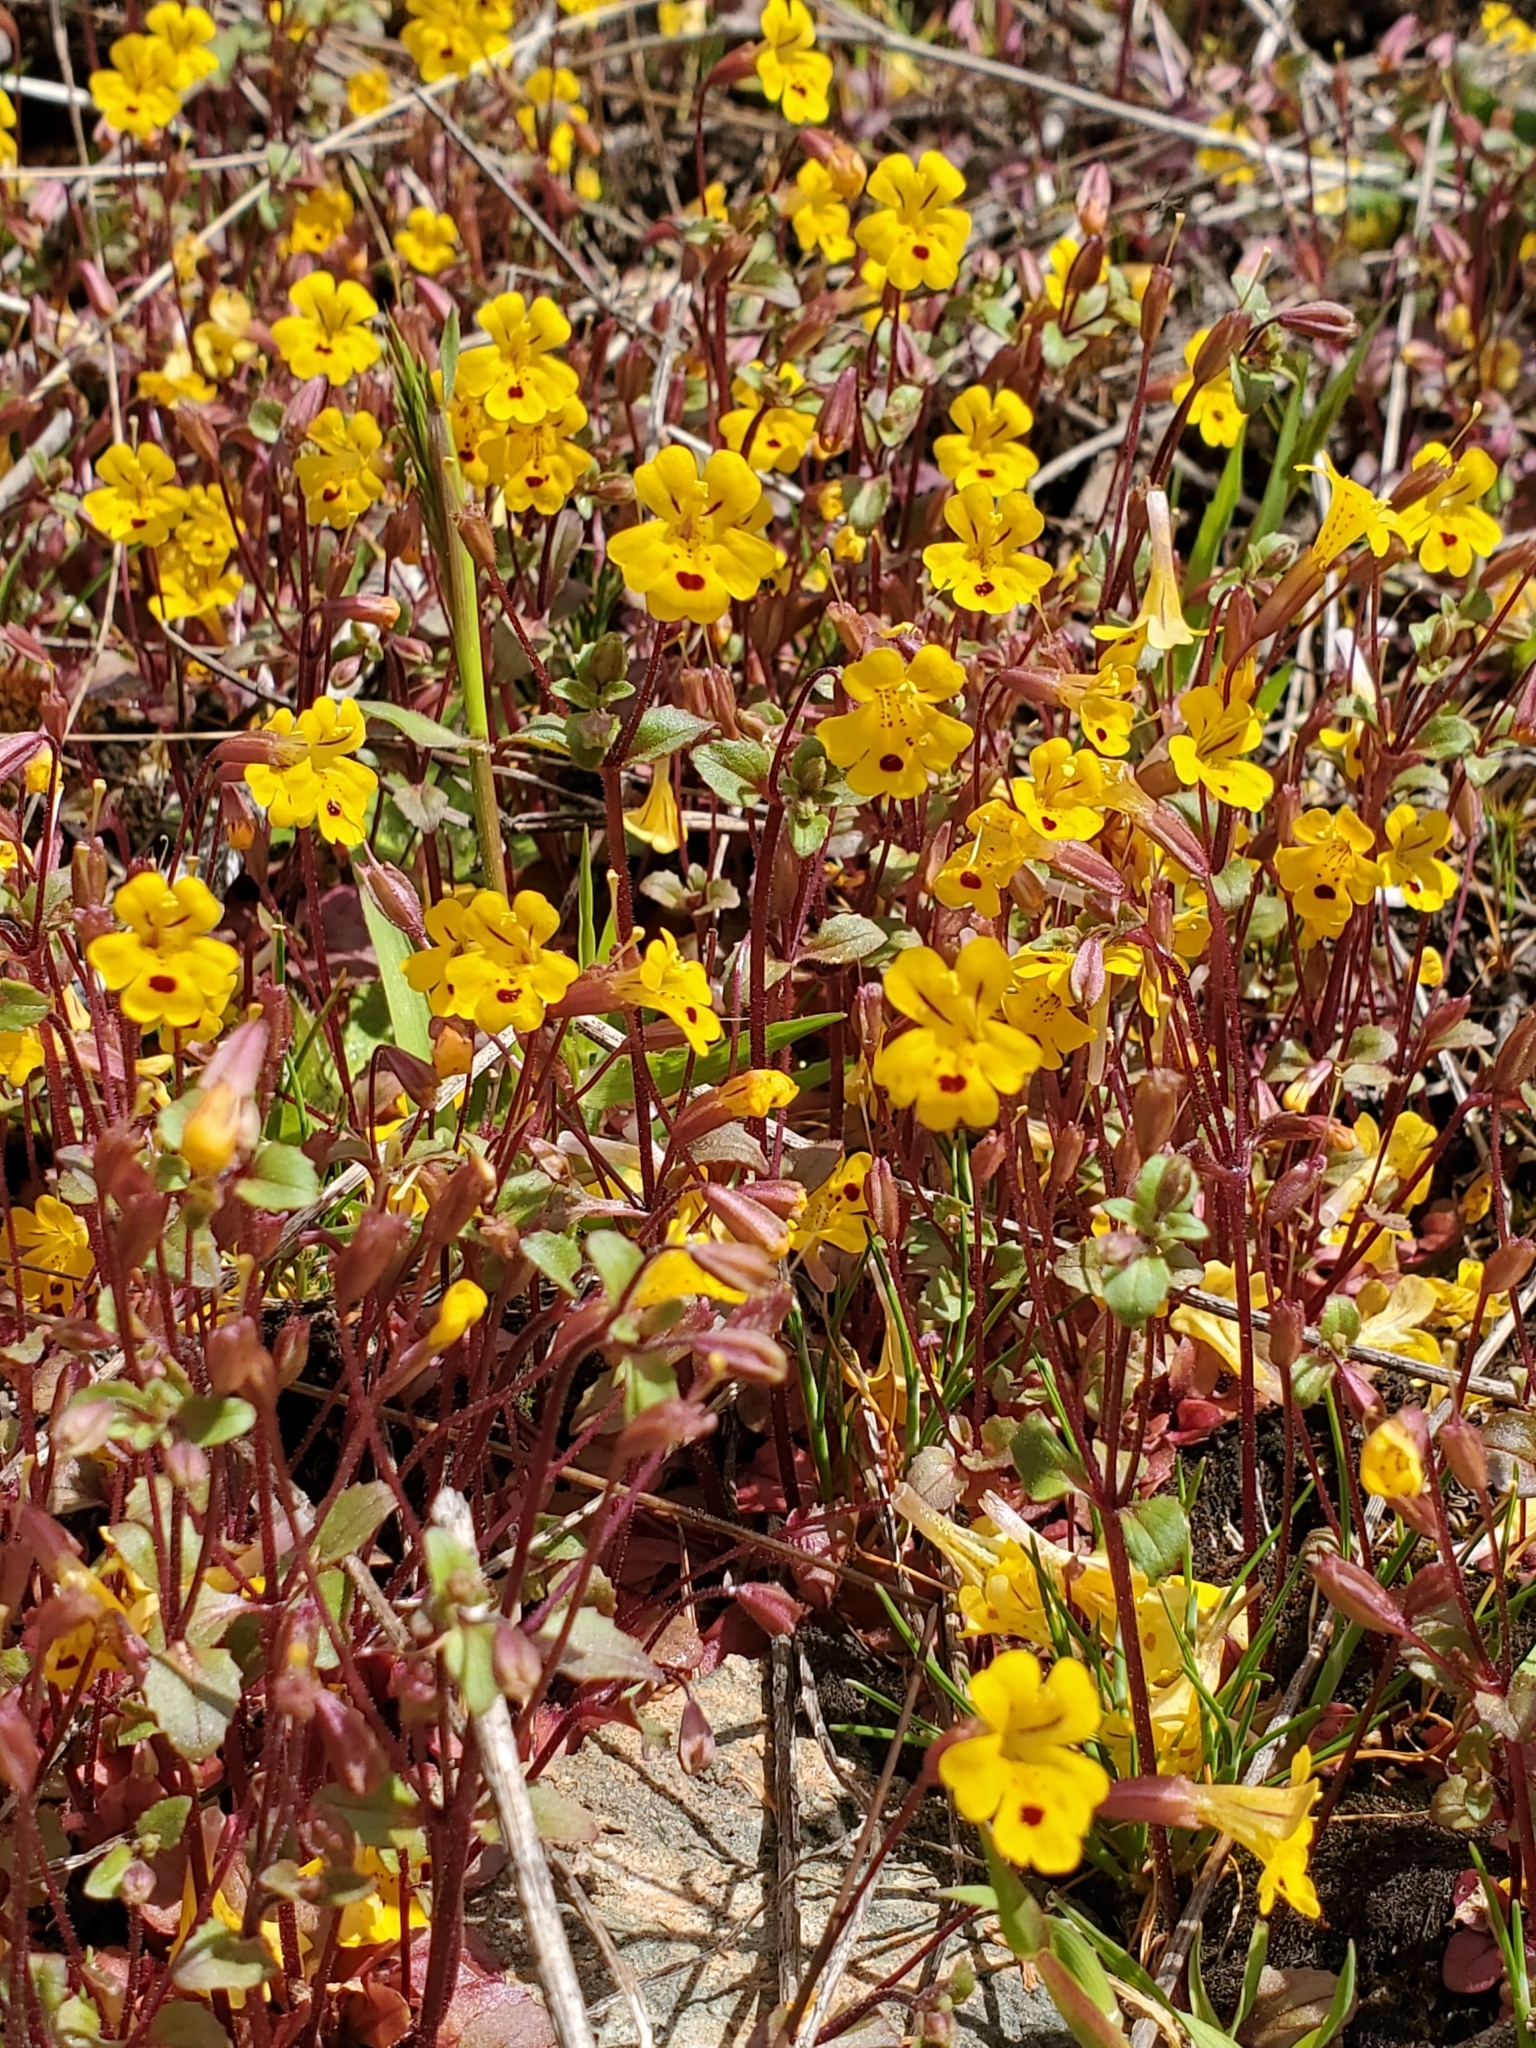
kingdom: Plantae
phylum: Tracheophyta
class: Magnoliopsida
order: Lamiales
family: Phrymaceae
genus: Erythranthe
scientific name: Erythranthe alsinoides
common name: Chickweed monkeyflower
